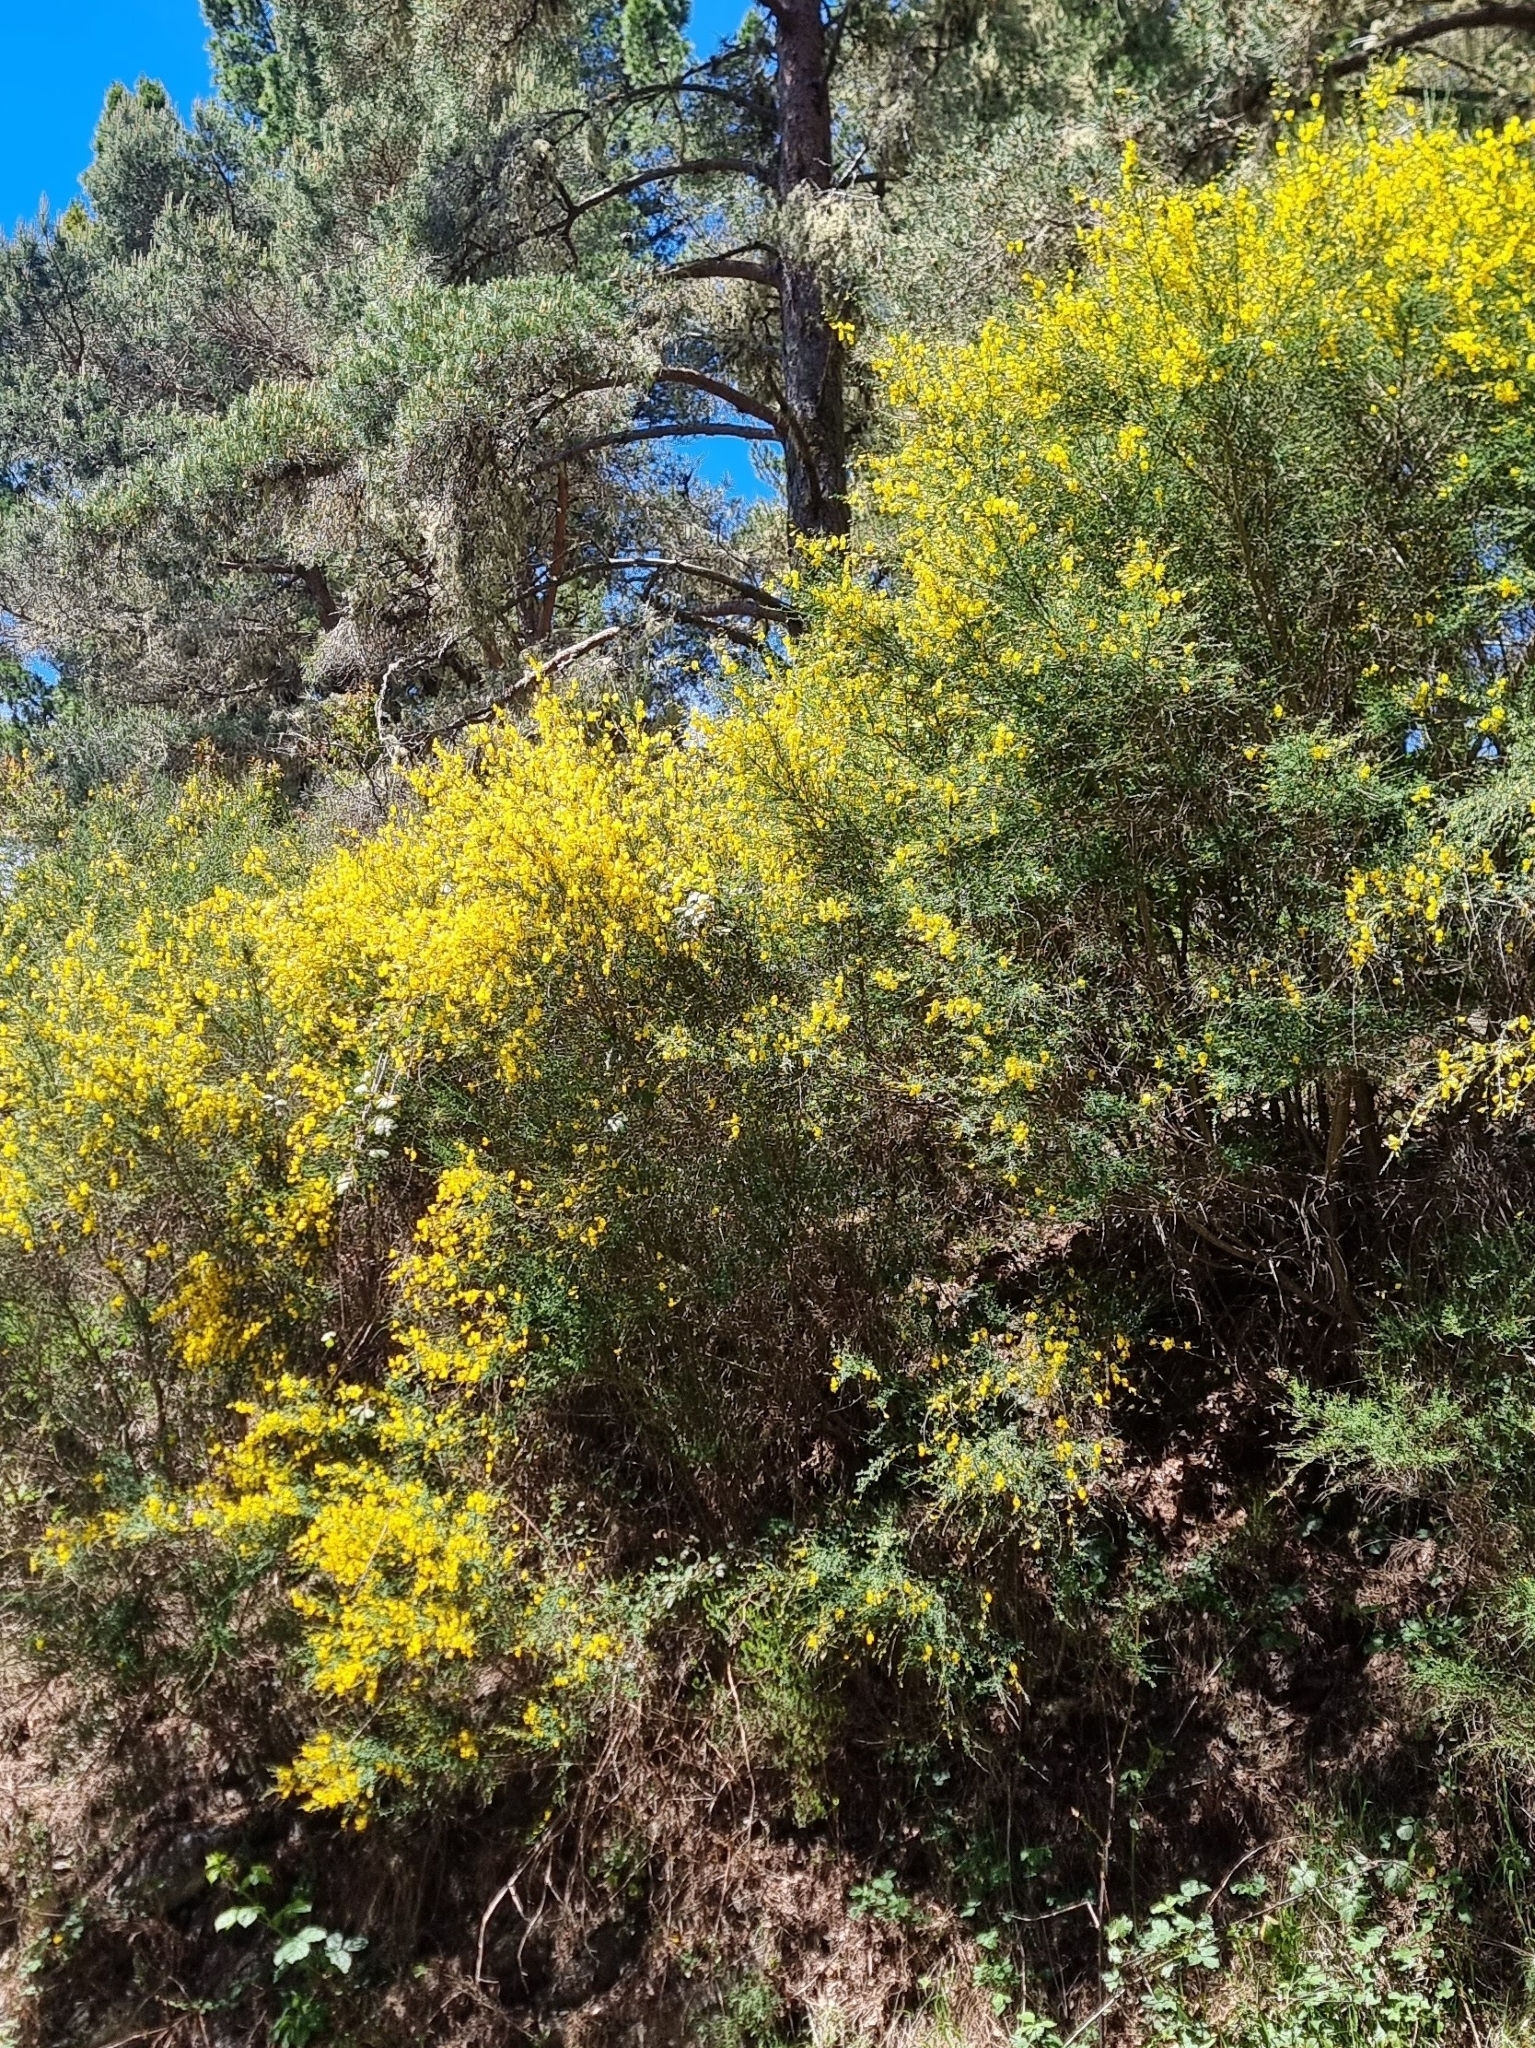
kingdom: Plantae
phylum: Tracheophyta
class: Magnoliopsida
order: Fabales
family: Fabaceae
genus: Cytisus
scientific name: Cytisus scoparius
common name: Scotch broom
